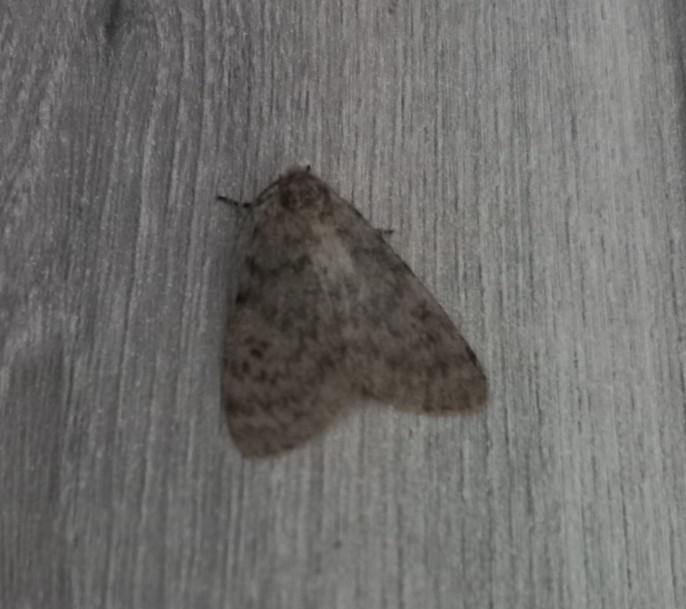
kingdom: Animalia
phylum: Arthropoda
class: Insecta
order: Lepidoptera
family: Erebidae
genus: Cymaroa
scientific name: Cymaroa grisea
